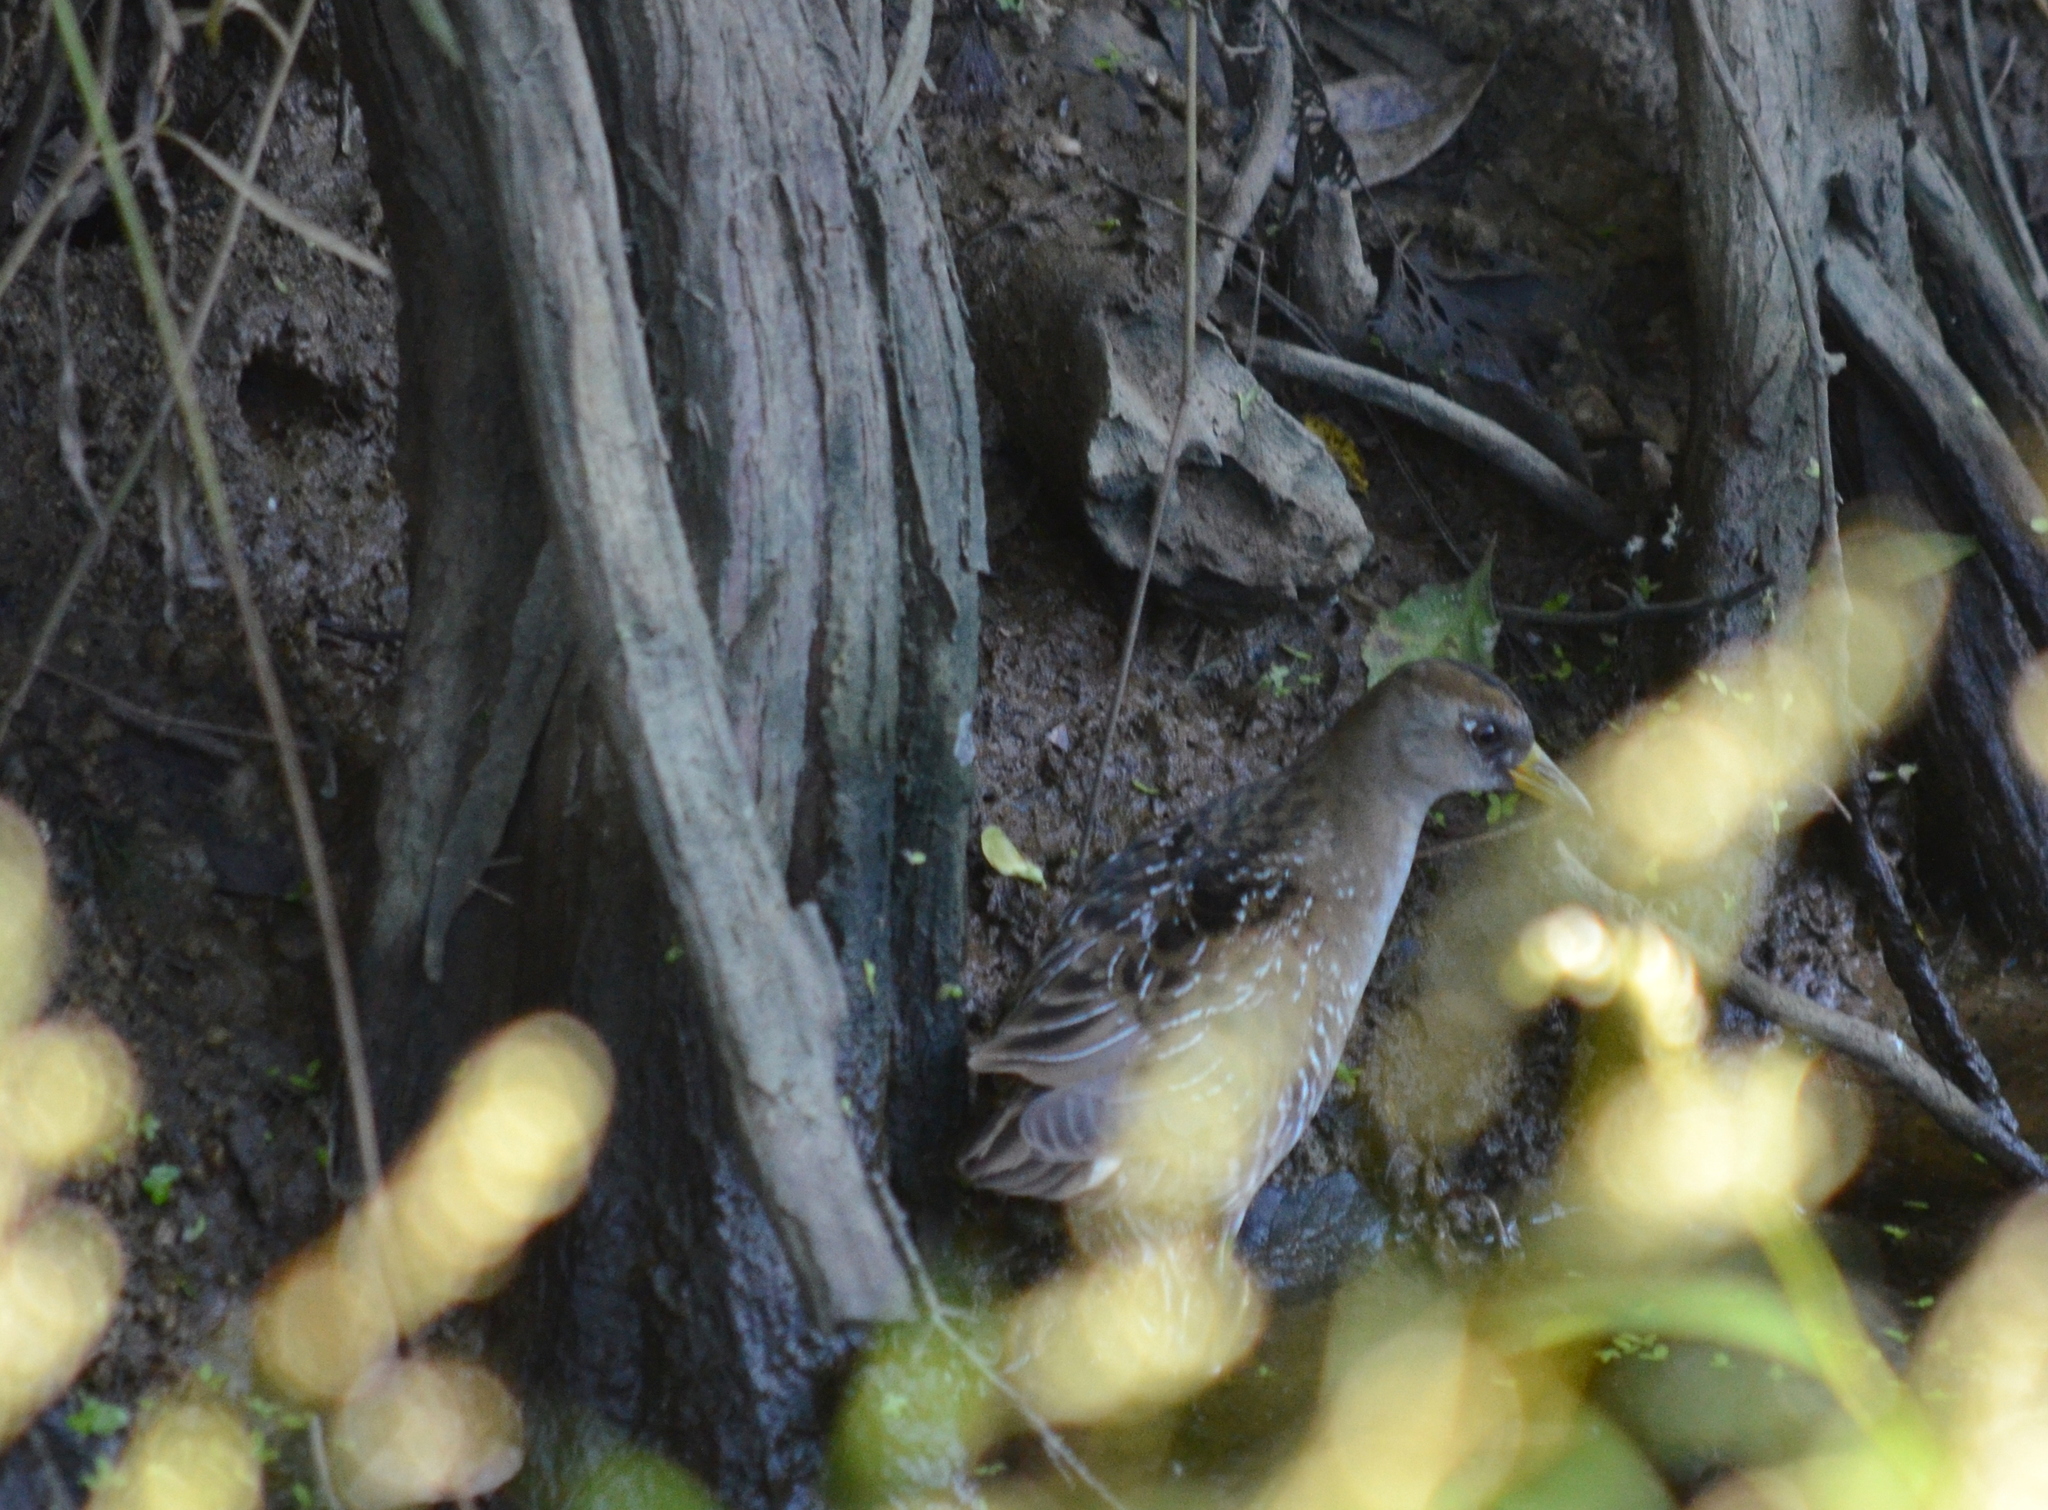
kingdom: Animalia
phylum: Chordata
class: Aves
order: Gruiformes
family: Rallidae
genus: Porzana
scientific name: Porzana carolina
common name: Sora
